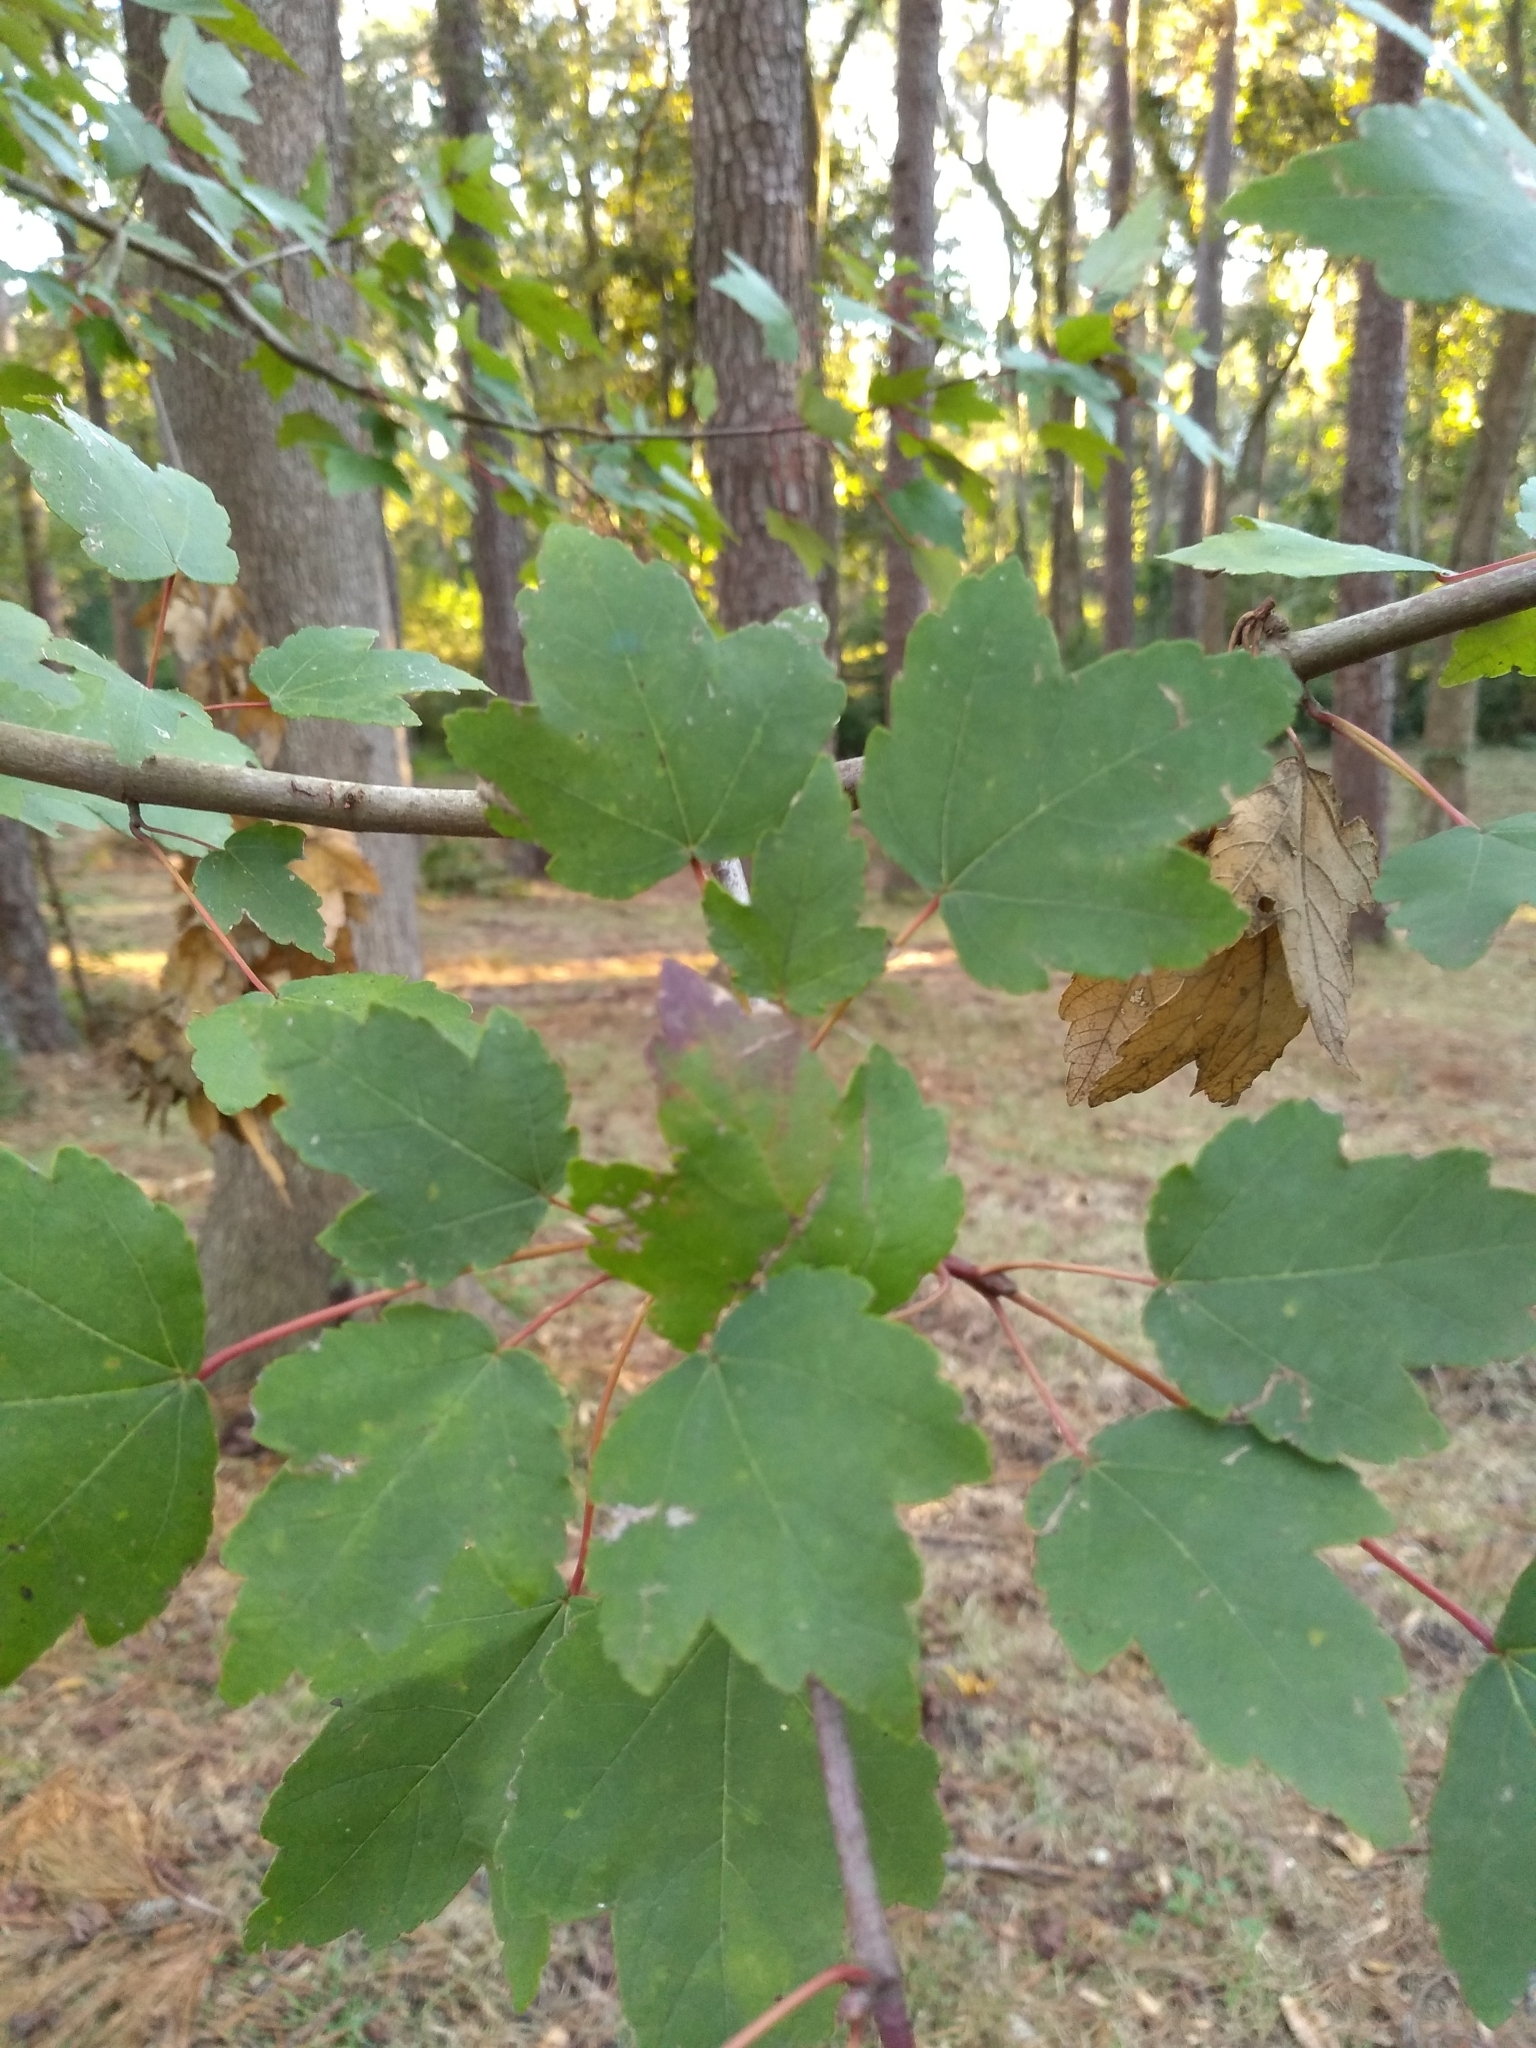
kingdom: Plantae
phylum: Tracheophyta
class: Magnoliopsida
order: Sapindales
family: Sapindaceae
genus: Acer
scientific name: Acer rubrum
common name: Red maple
